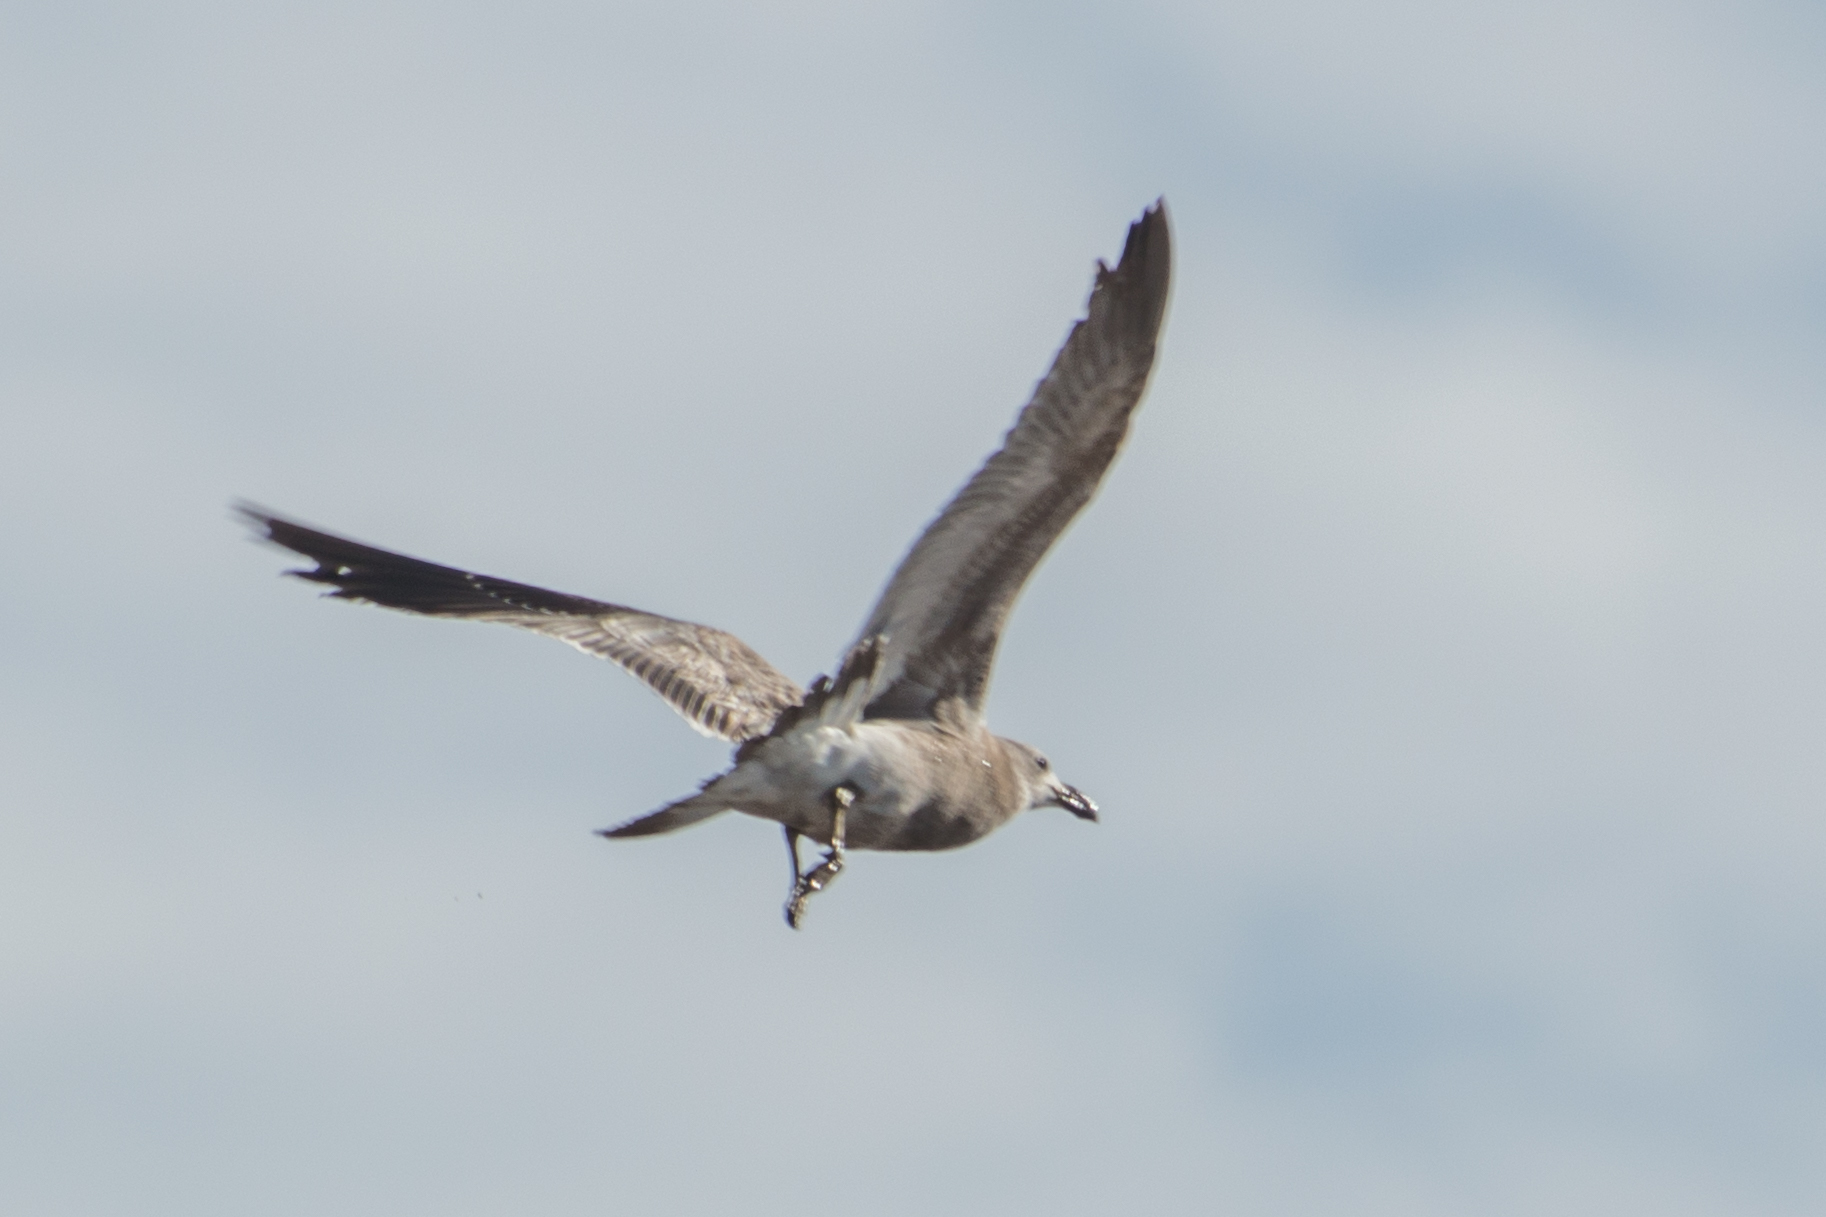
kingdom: Animalia
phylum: Chordata
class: Aves
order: Charadriiformes
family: Laridae
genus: Larus
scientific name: Larus dominicanus
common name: Kelp gull
